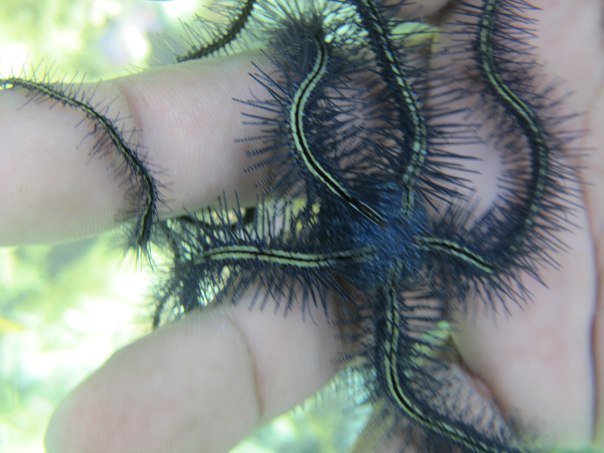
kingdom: Animalia
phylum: Echinodermata
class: Ophiuroidea
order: Amphilepidida
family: Ophiotrichidae
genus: Ophiothrix
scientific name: Ophiothrix suensonii
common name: Sponge brittle star
